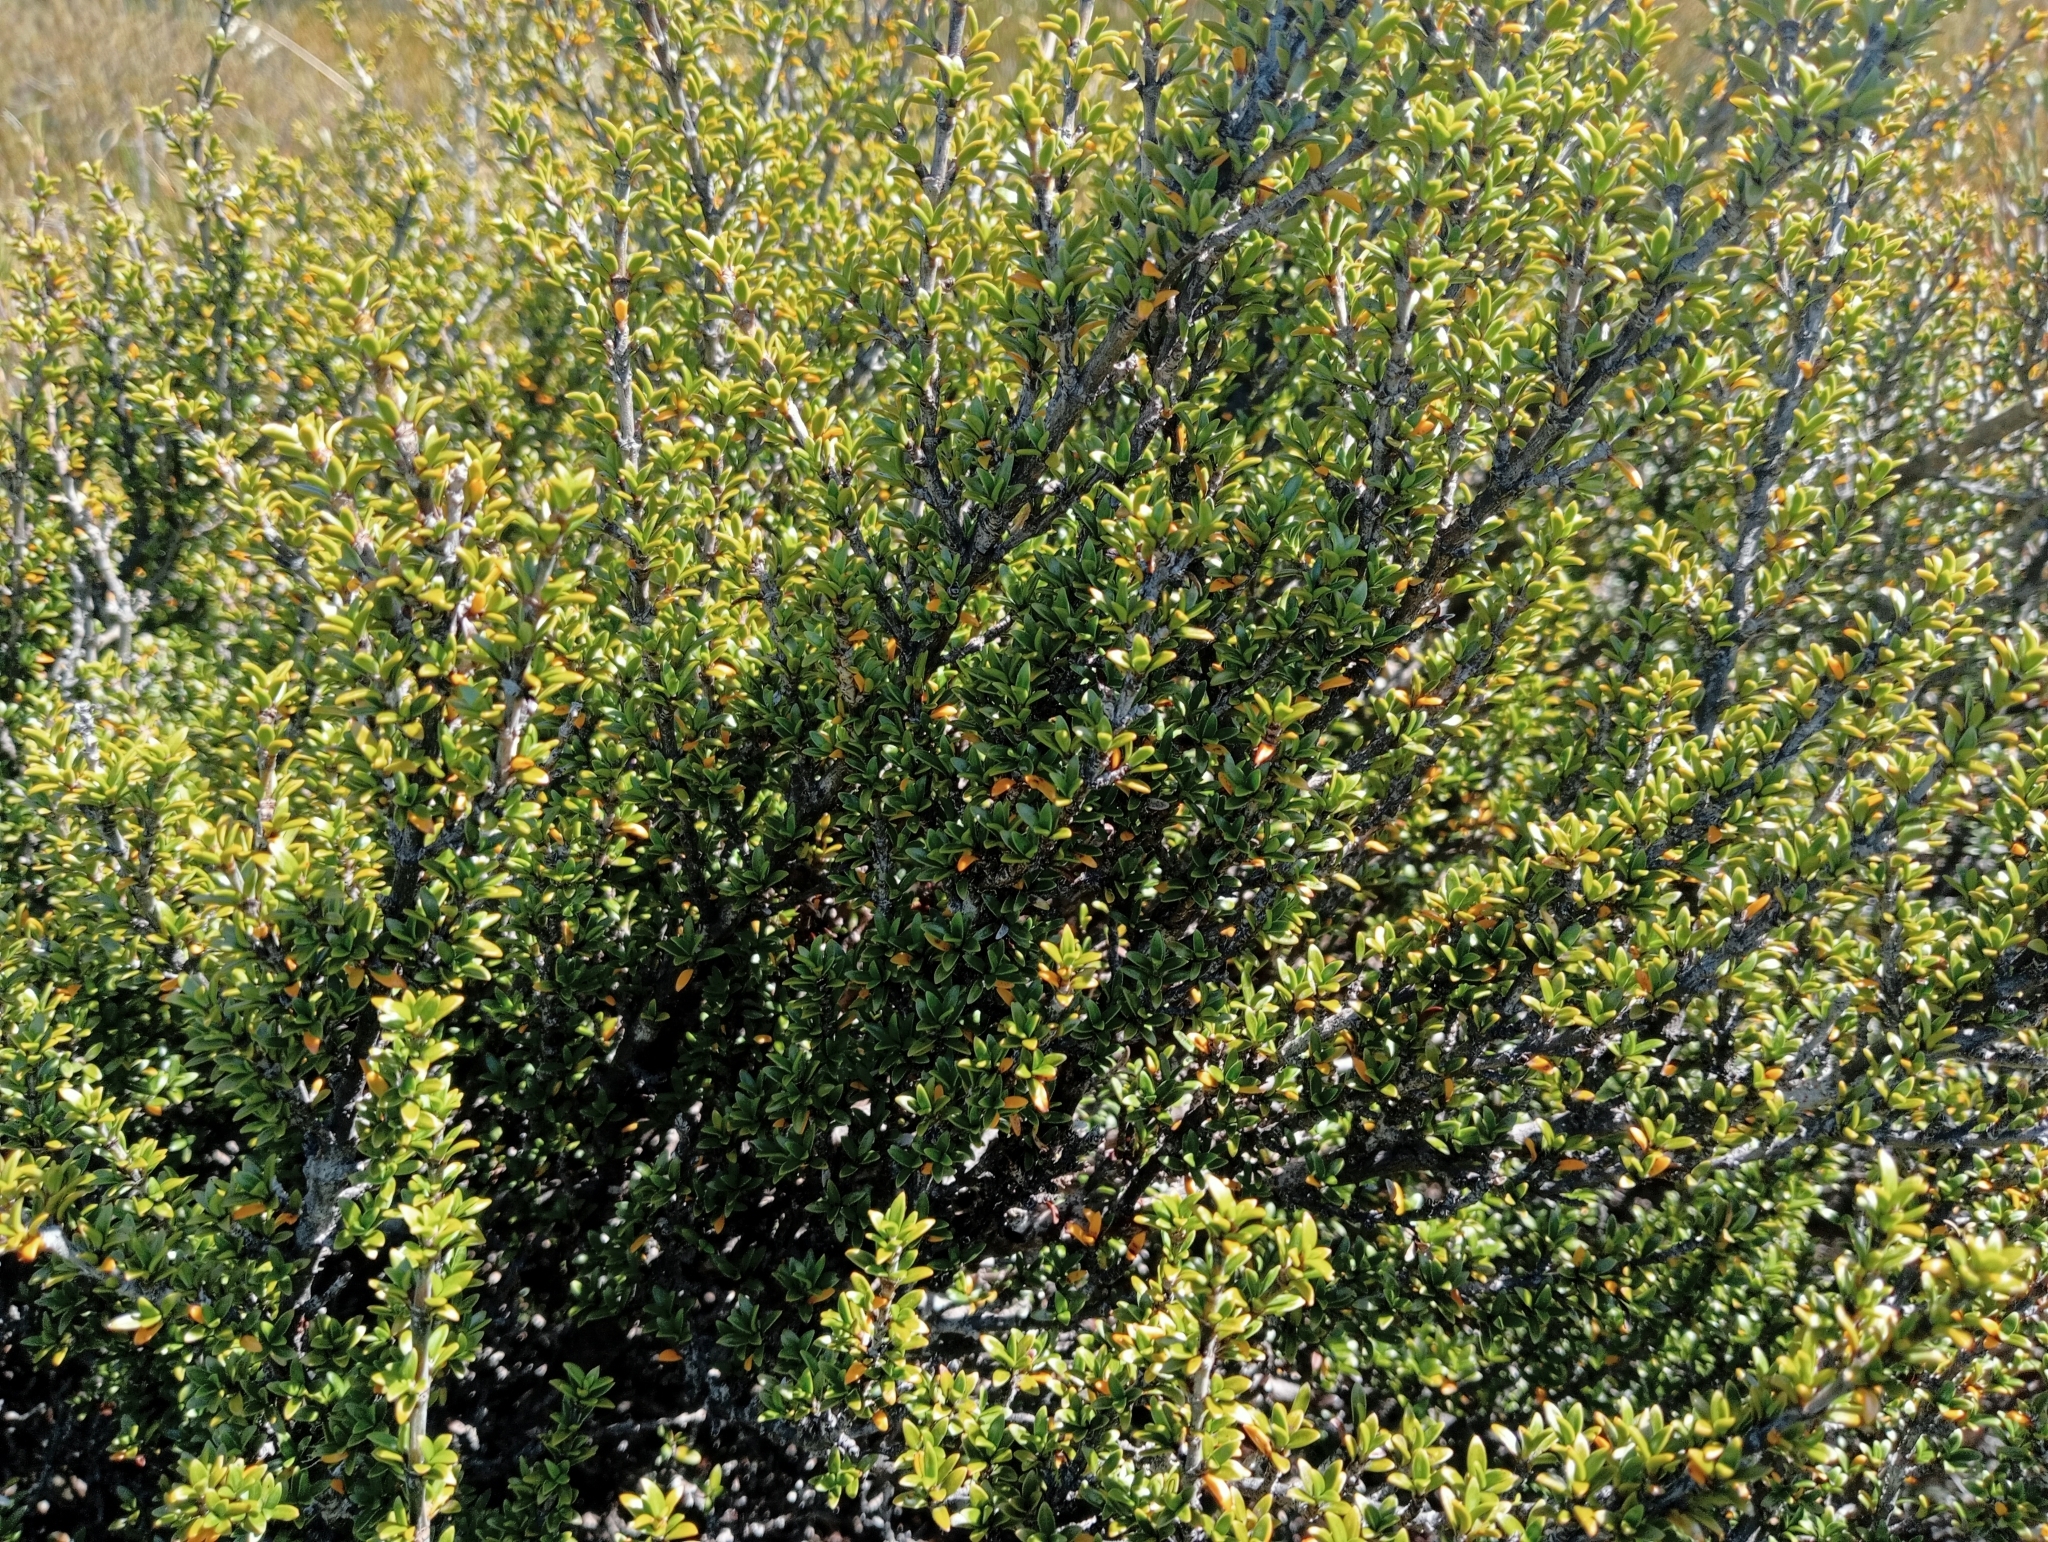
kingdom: Plantae
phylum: Tracheophyta
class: Magnoliopsida
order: Gentianales
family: Rubiaceae
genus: Coprosma
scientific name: Coprosma pseudocuneata
